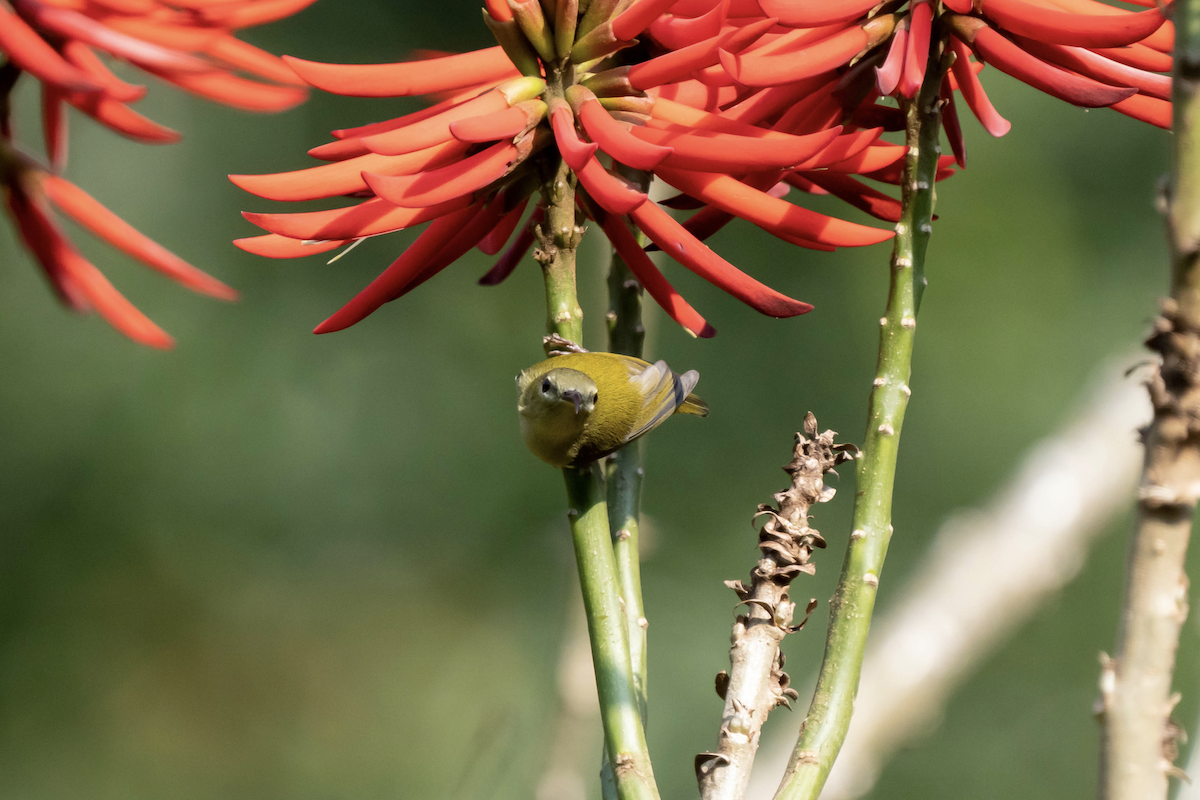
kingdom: Animalia
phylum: Chordata
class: Aves
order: Passeriformes
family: Nectariniidae
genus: Aethopyga
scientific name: Aethopyga christinae
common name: Fork-tailed sunbird
